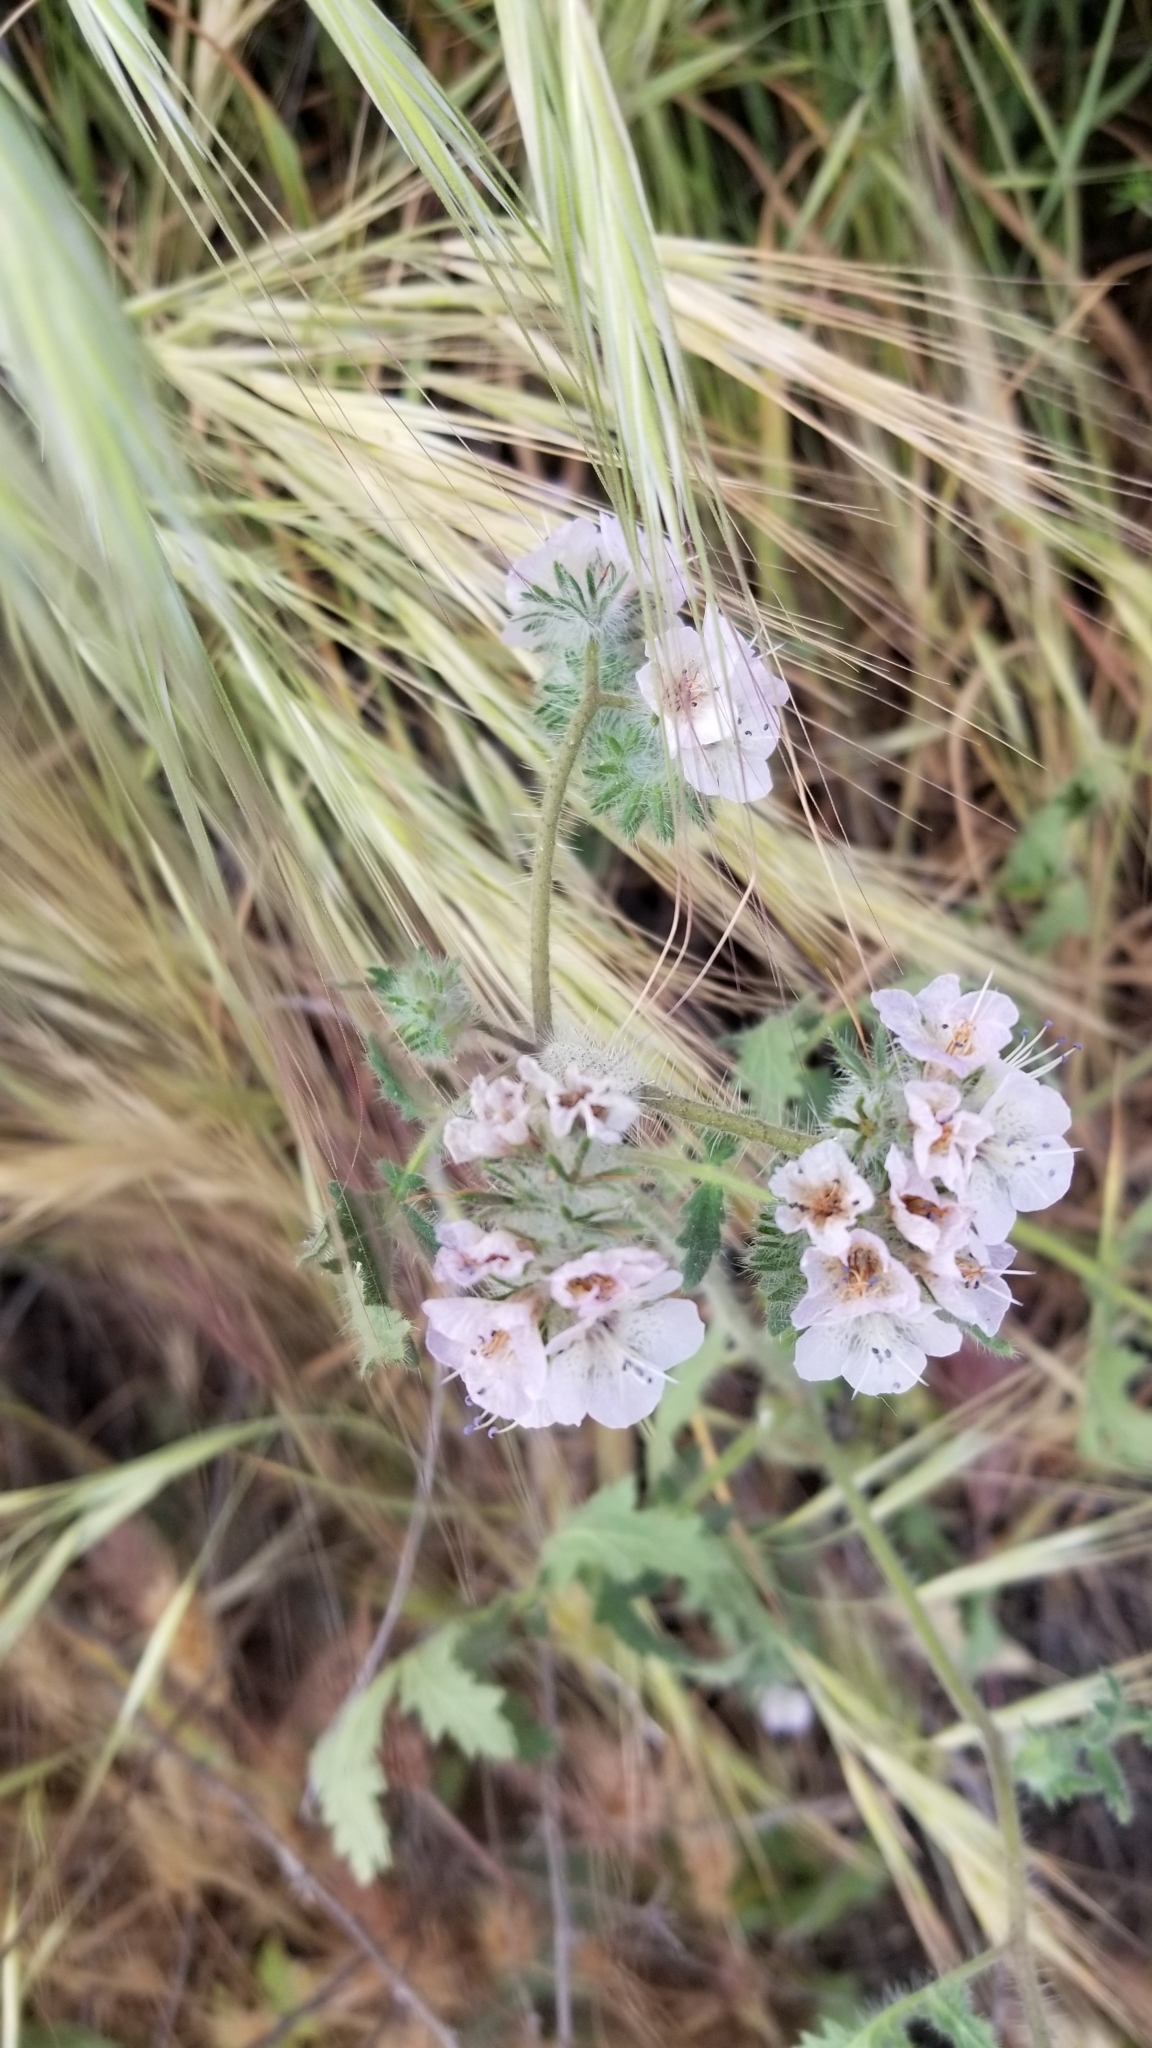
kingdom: Plantae
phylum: Tracheophyta
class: Magnoliopsida
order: Boraginales
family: Hydrophyllaceae
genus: Phacelia
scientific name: Phacelia cicutaria
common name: Caterpillar phacelia
